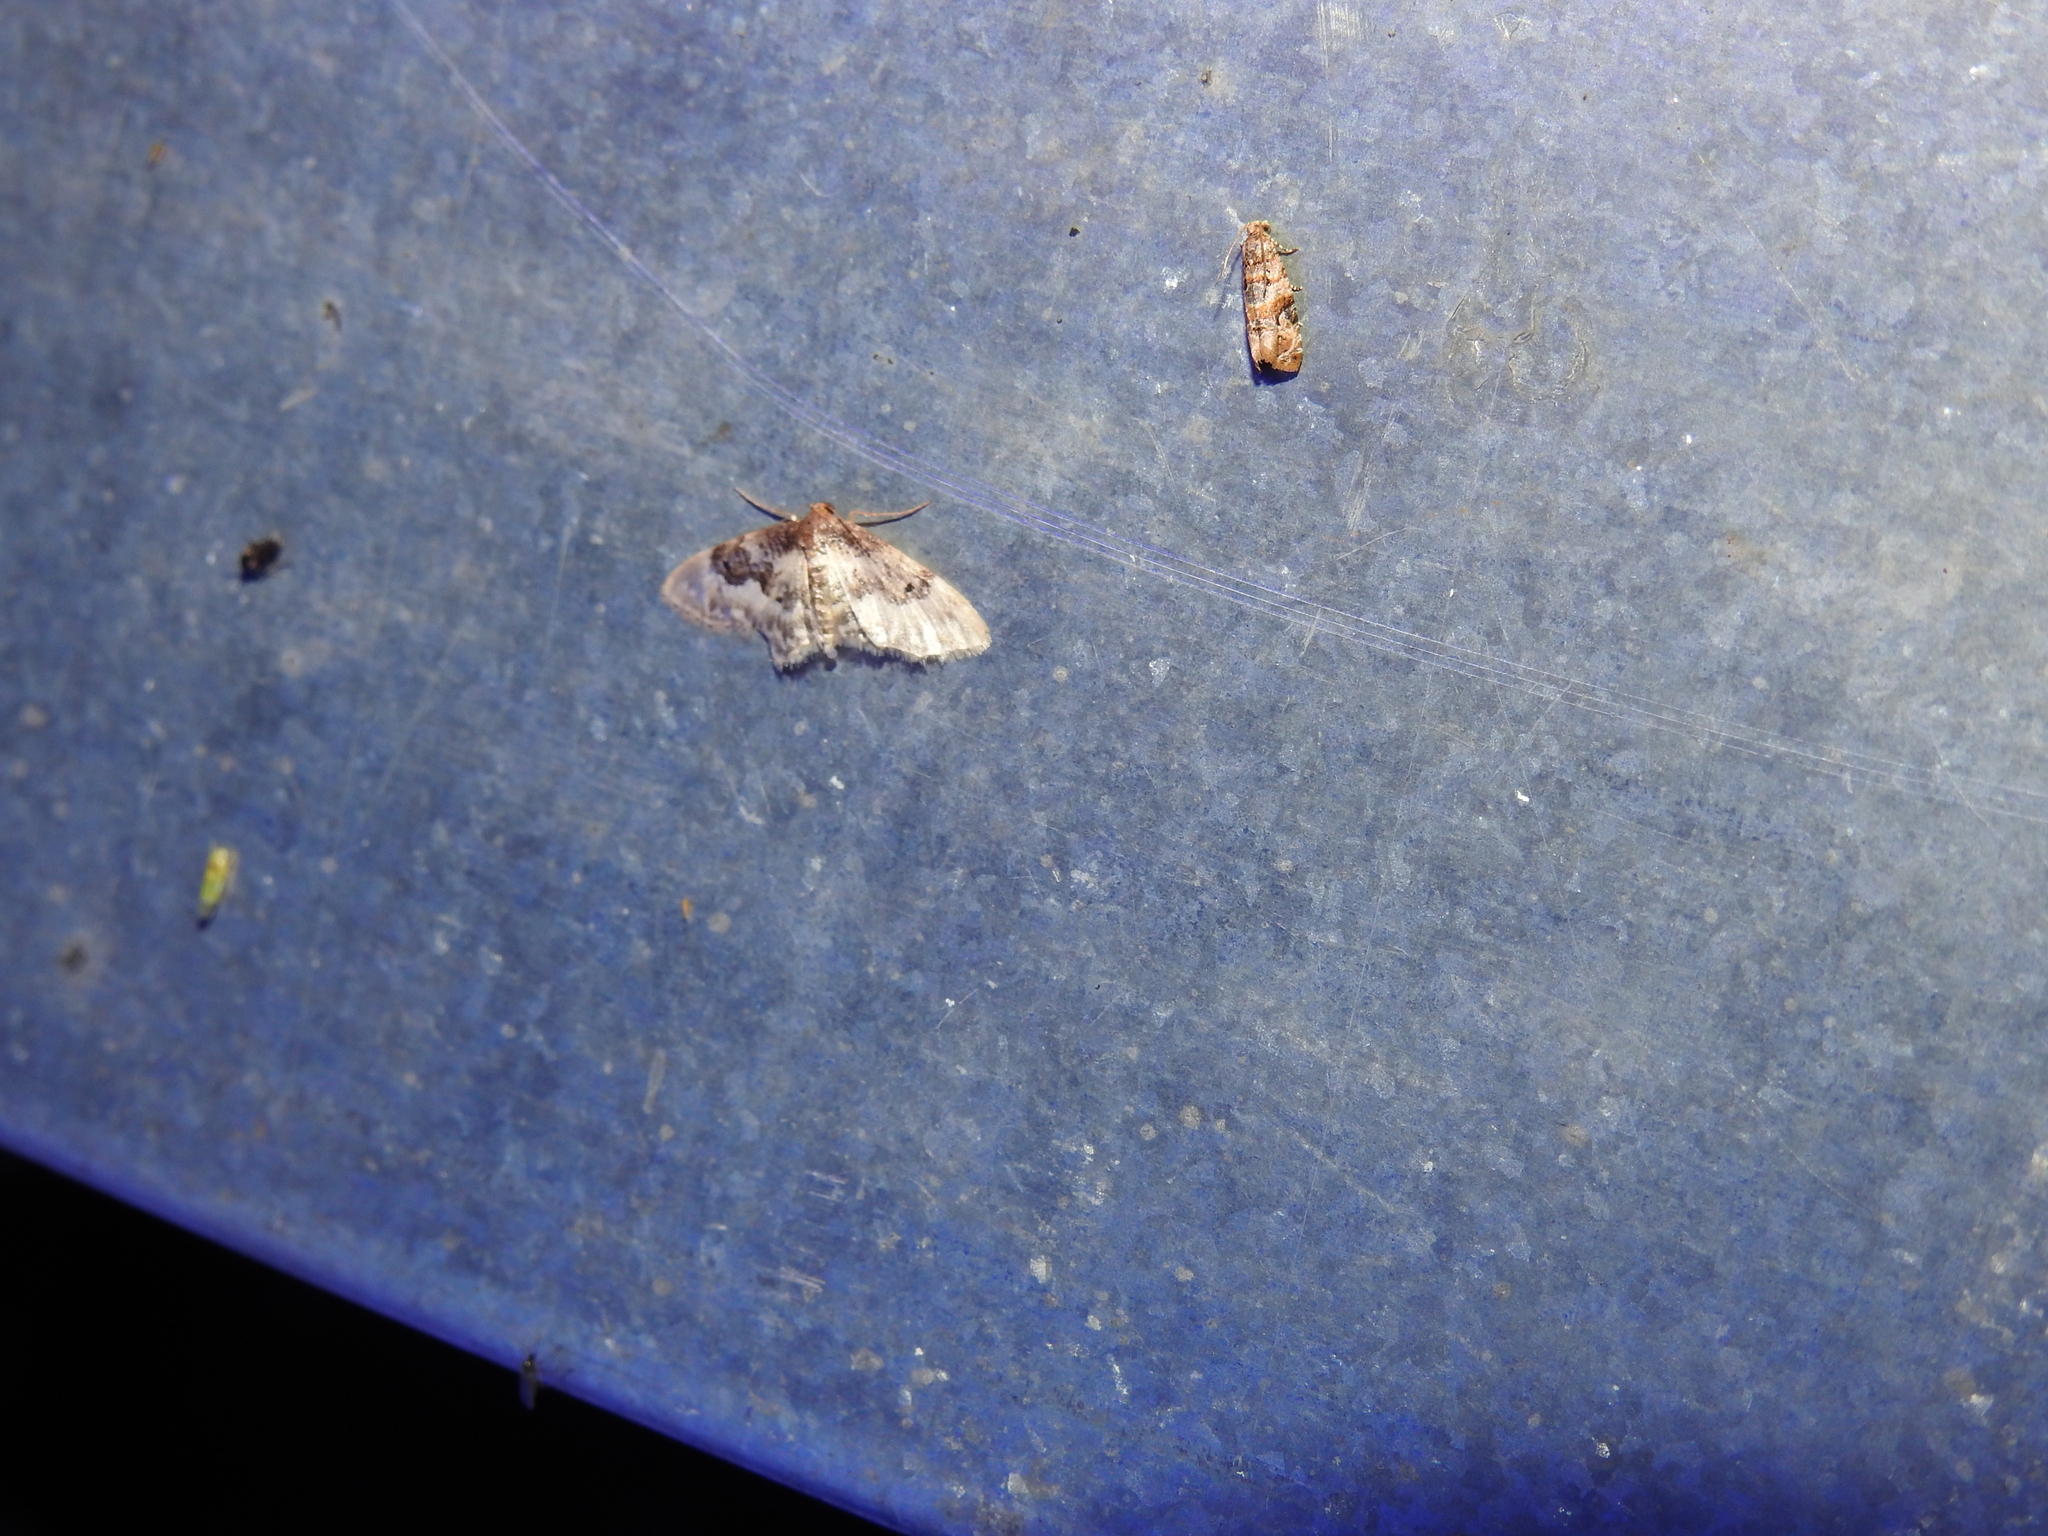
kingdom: Animalia
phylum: Arthropoda
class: Insecta
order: Lepidoptera
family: Geometridae
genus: Idaea
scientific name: Idaea rusticata
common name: Least carpet
